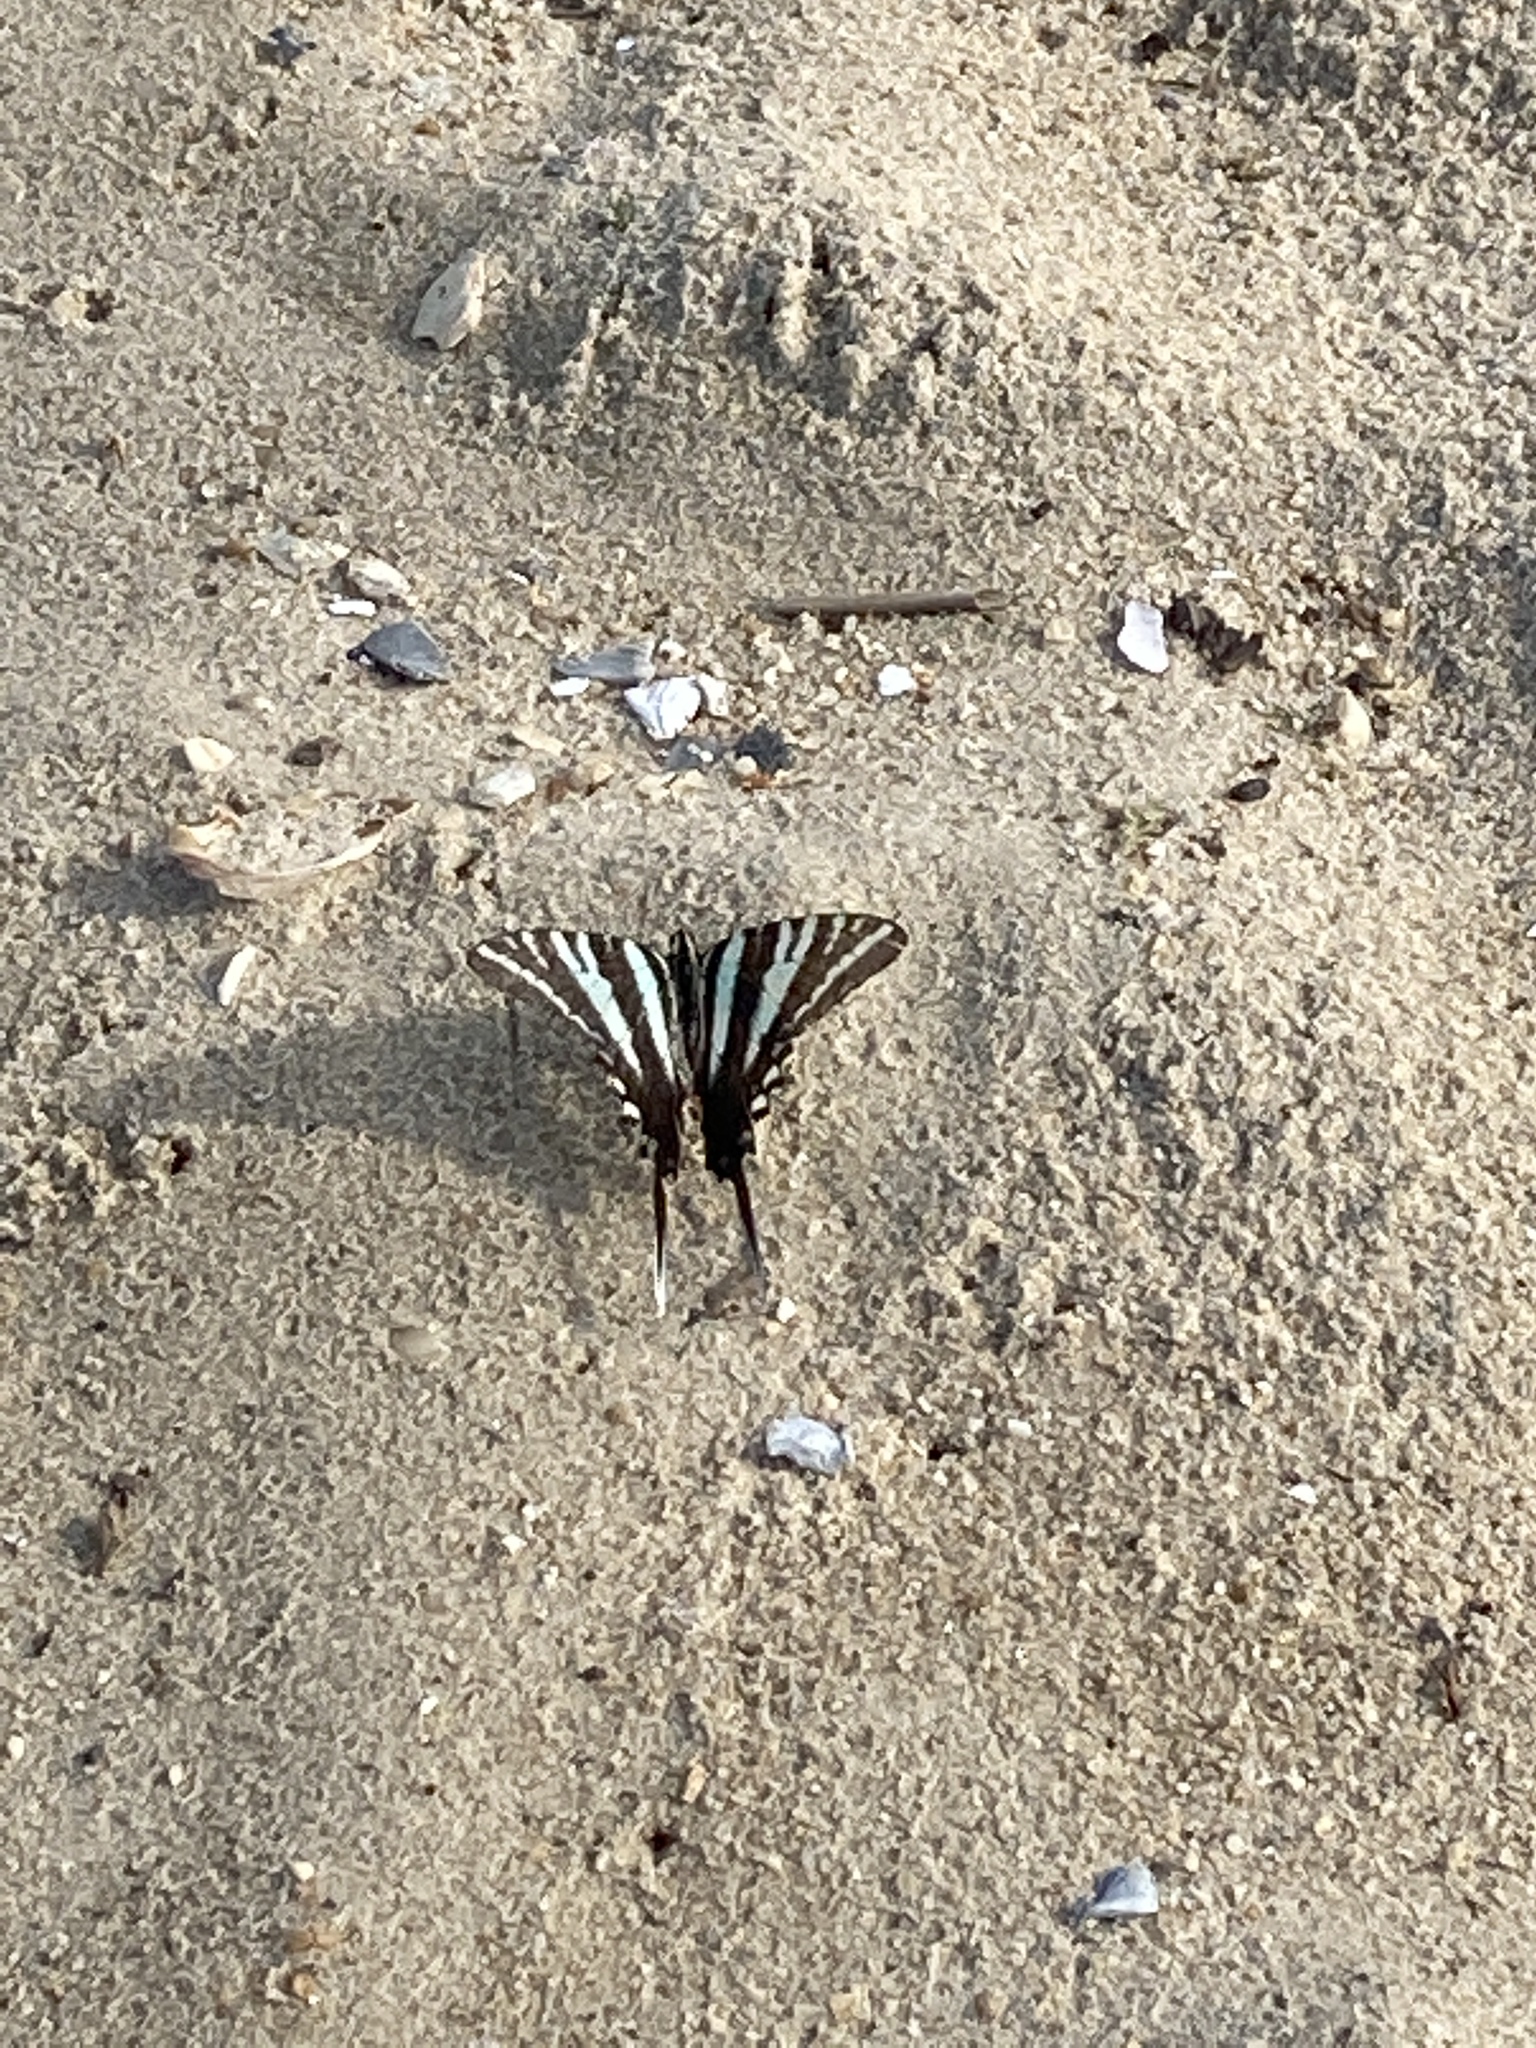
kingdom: Animalia
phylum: Arthropoda
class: Insecta
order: Lepidoptera
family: Papilionidae
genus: Protographium
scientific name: Protographium marcellus
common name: Zebra swallowtail
